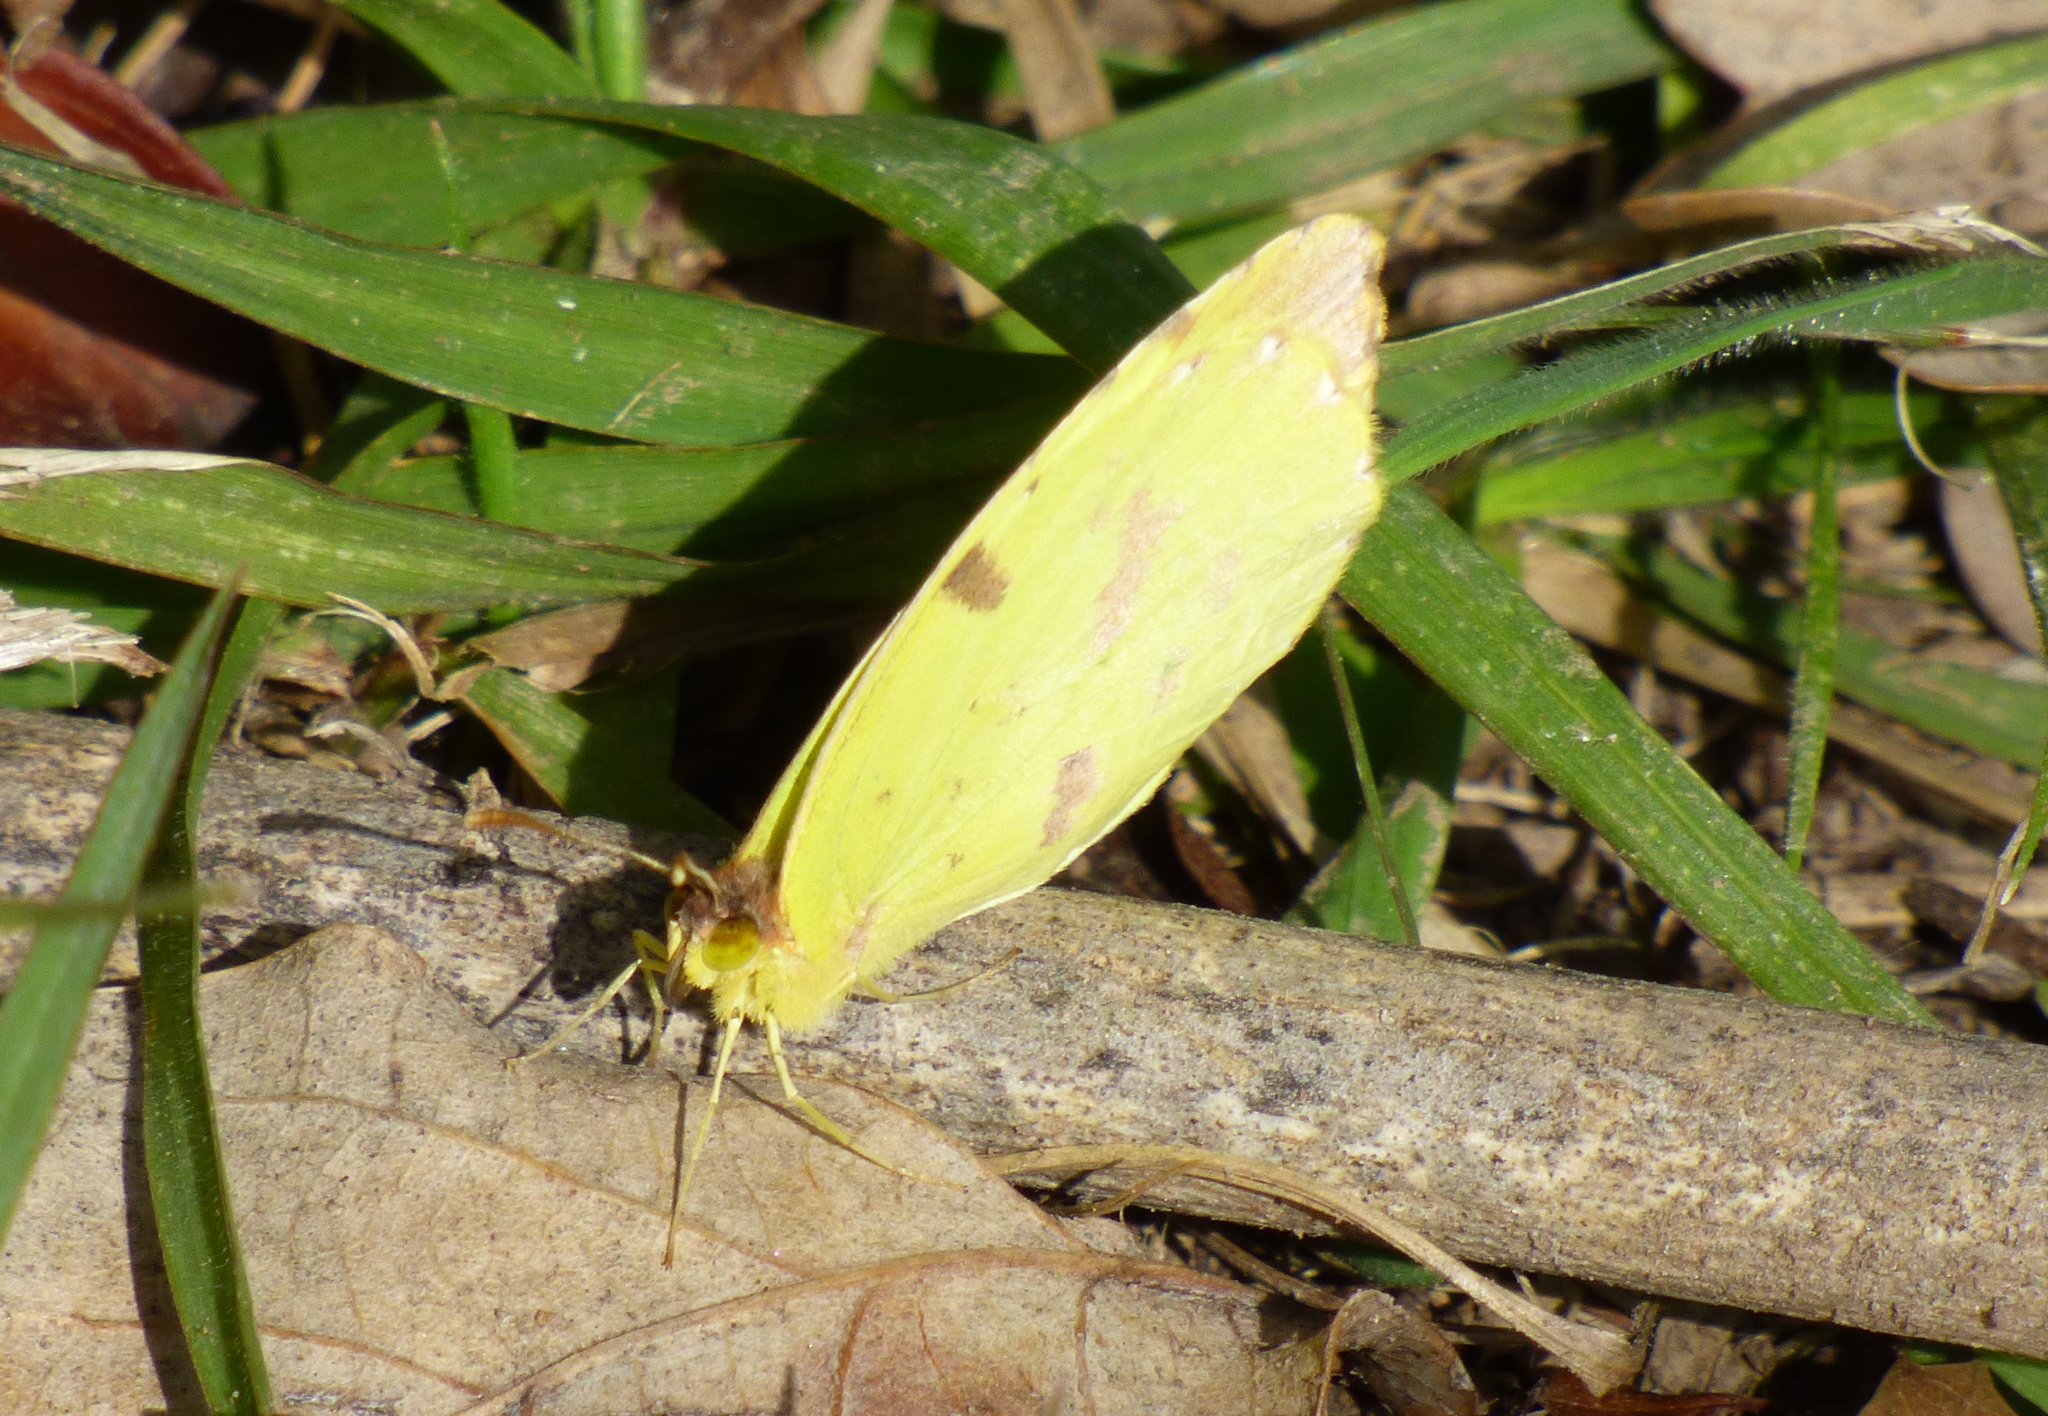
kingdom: Animalia
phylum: Arthropoda
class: Insecta
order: Lepidoptera
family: Pieridae
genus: Teriocolias
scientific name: Teriocolias
